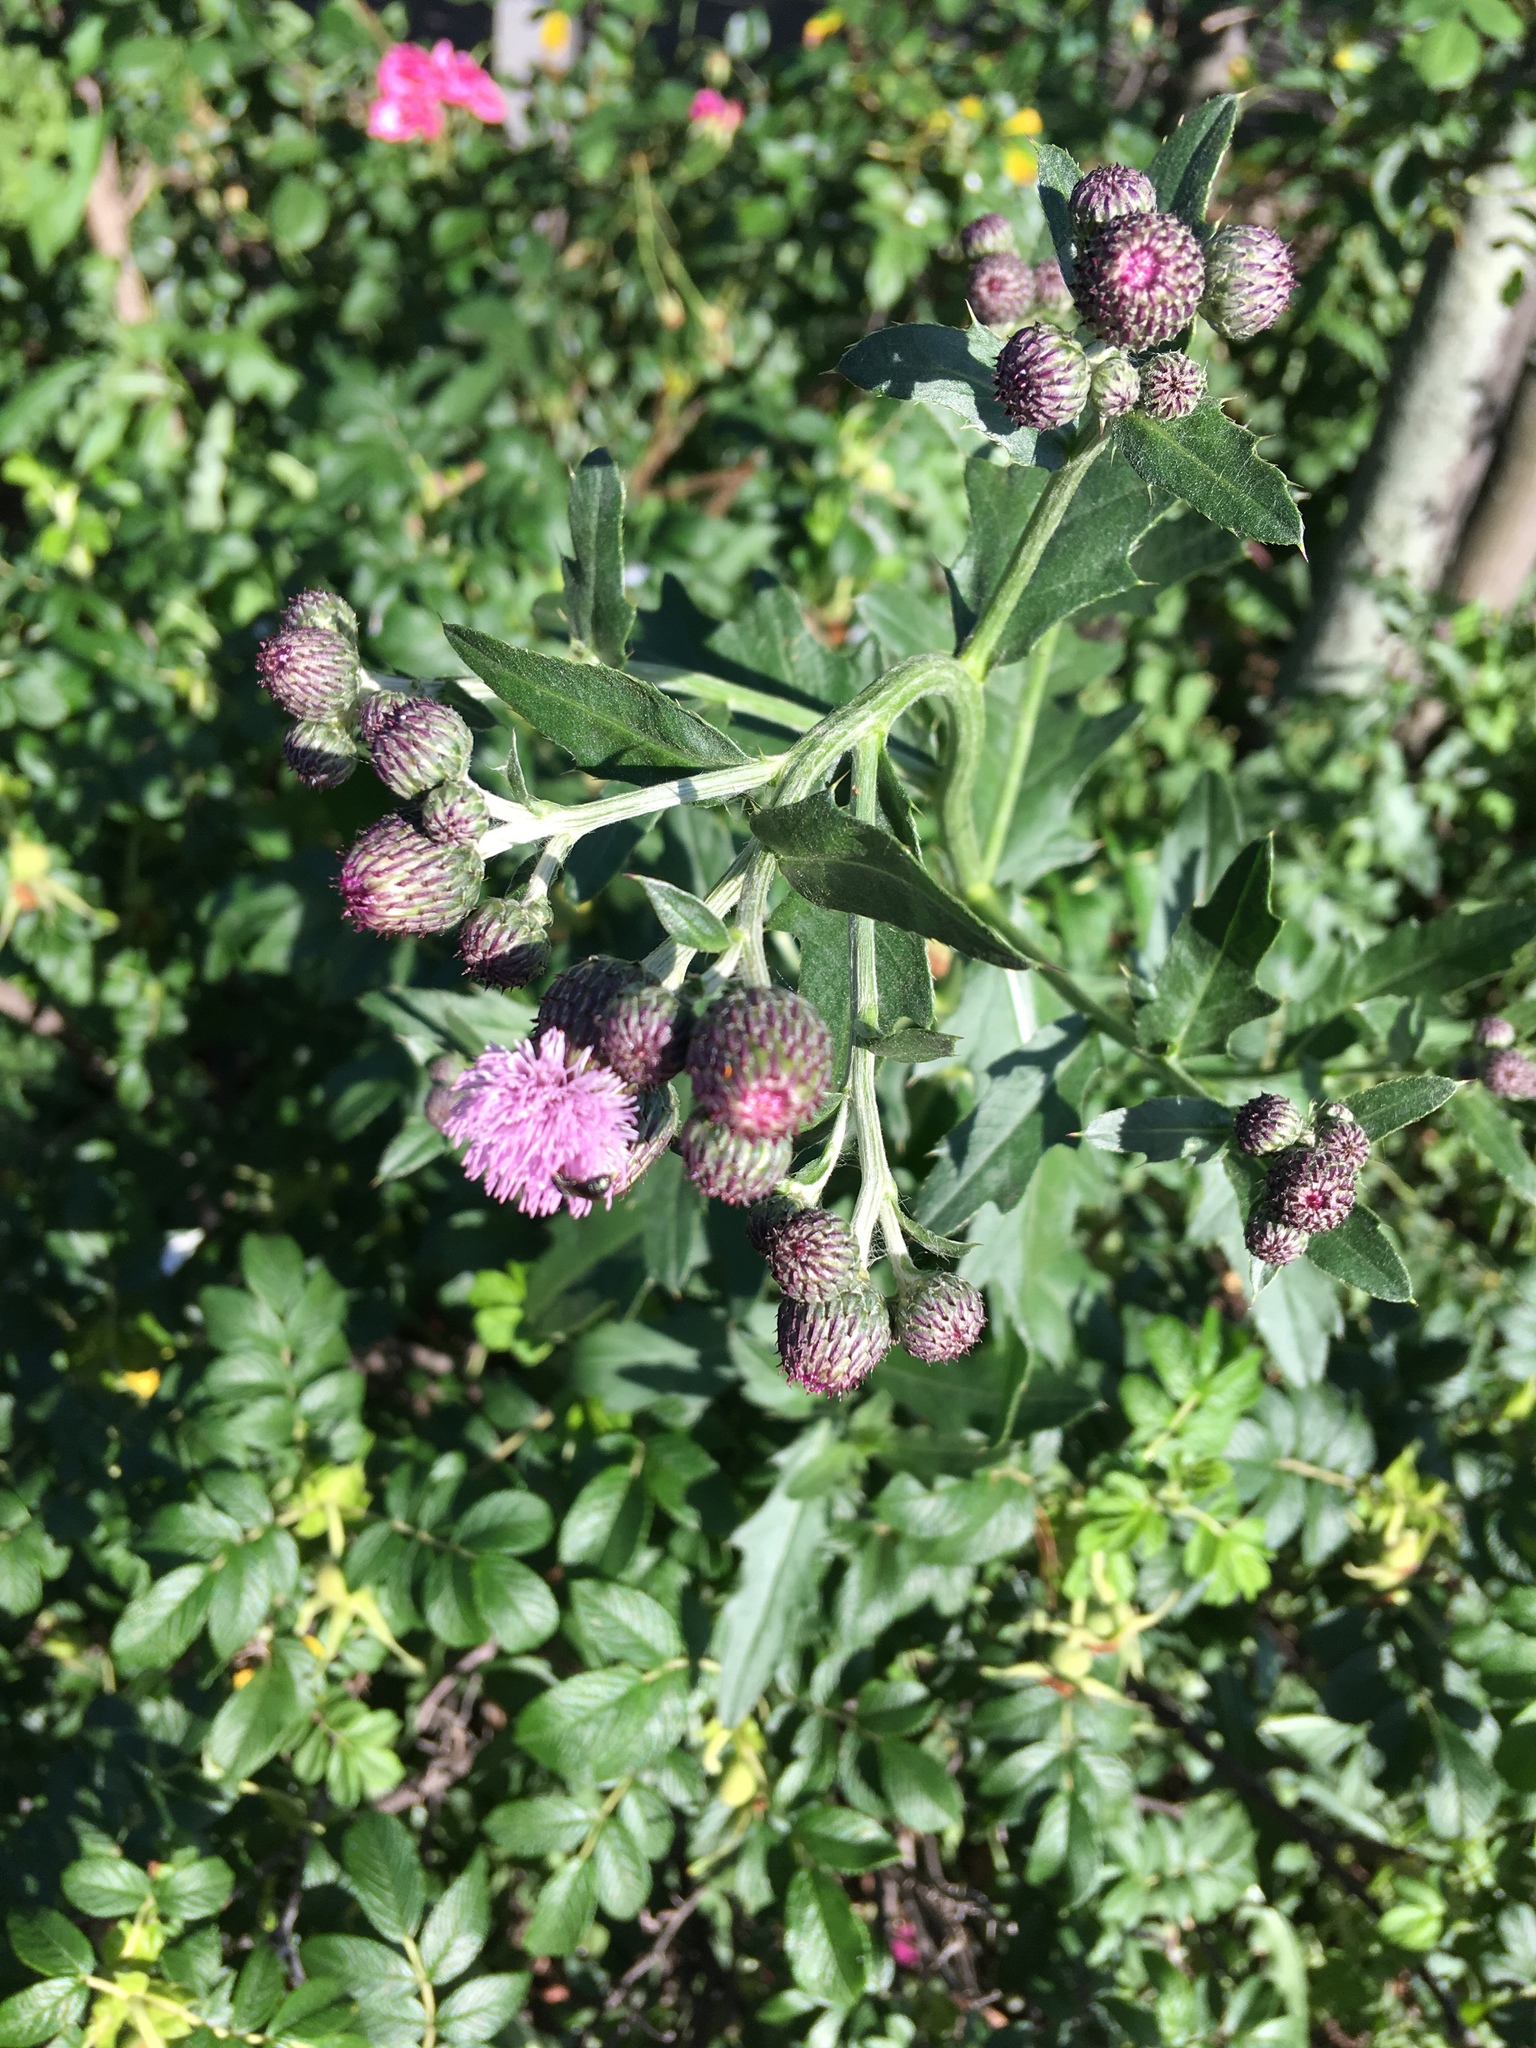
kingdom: Plantae
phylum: Tracheophyta
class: Magnoliopsida
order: Asterales
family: Asteraceae
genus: Cirsium
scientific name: Cirsium arvense
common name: Creeping thistle
